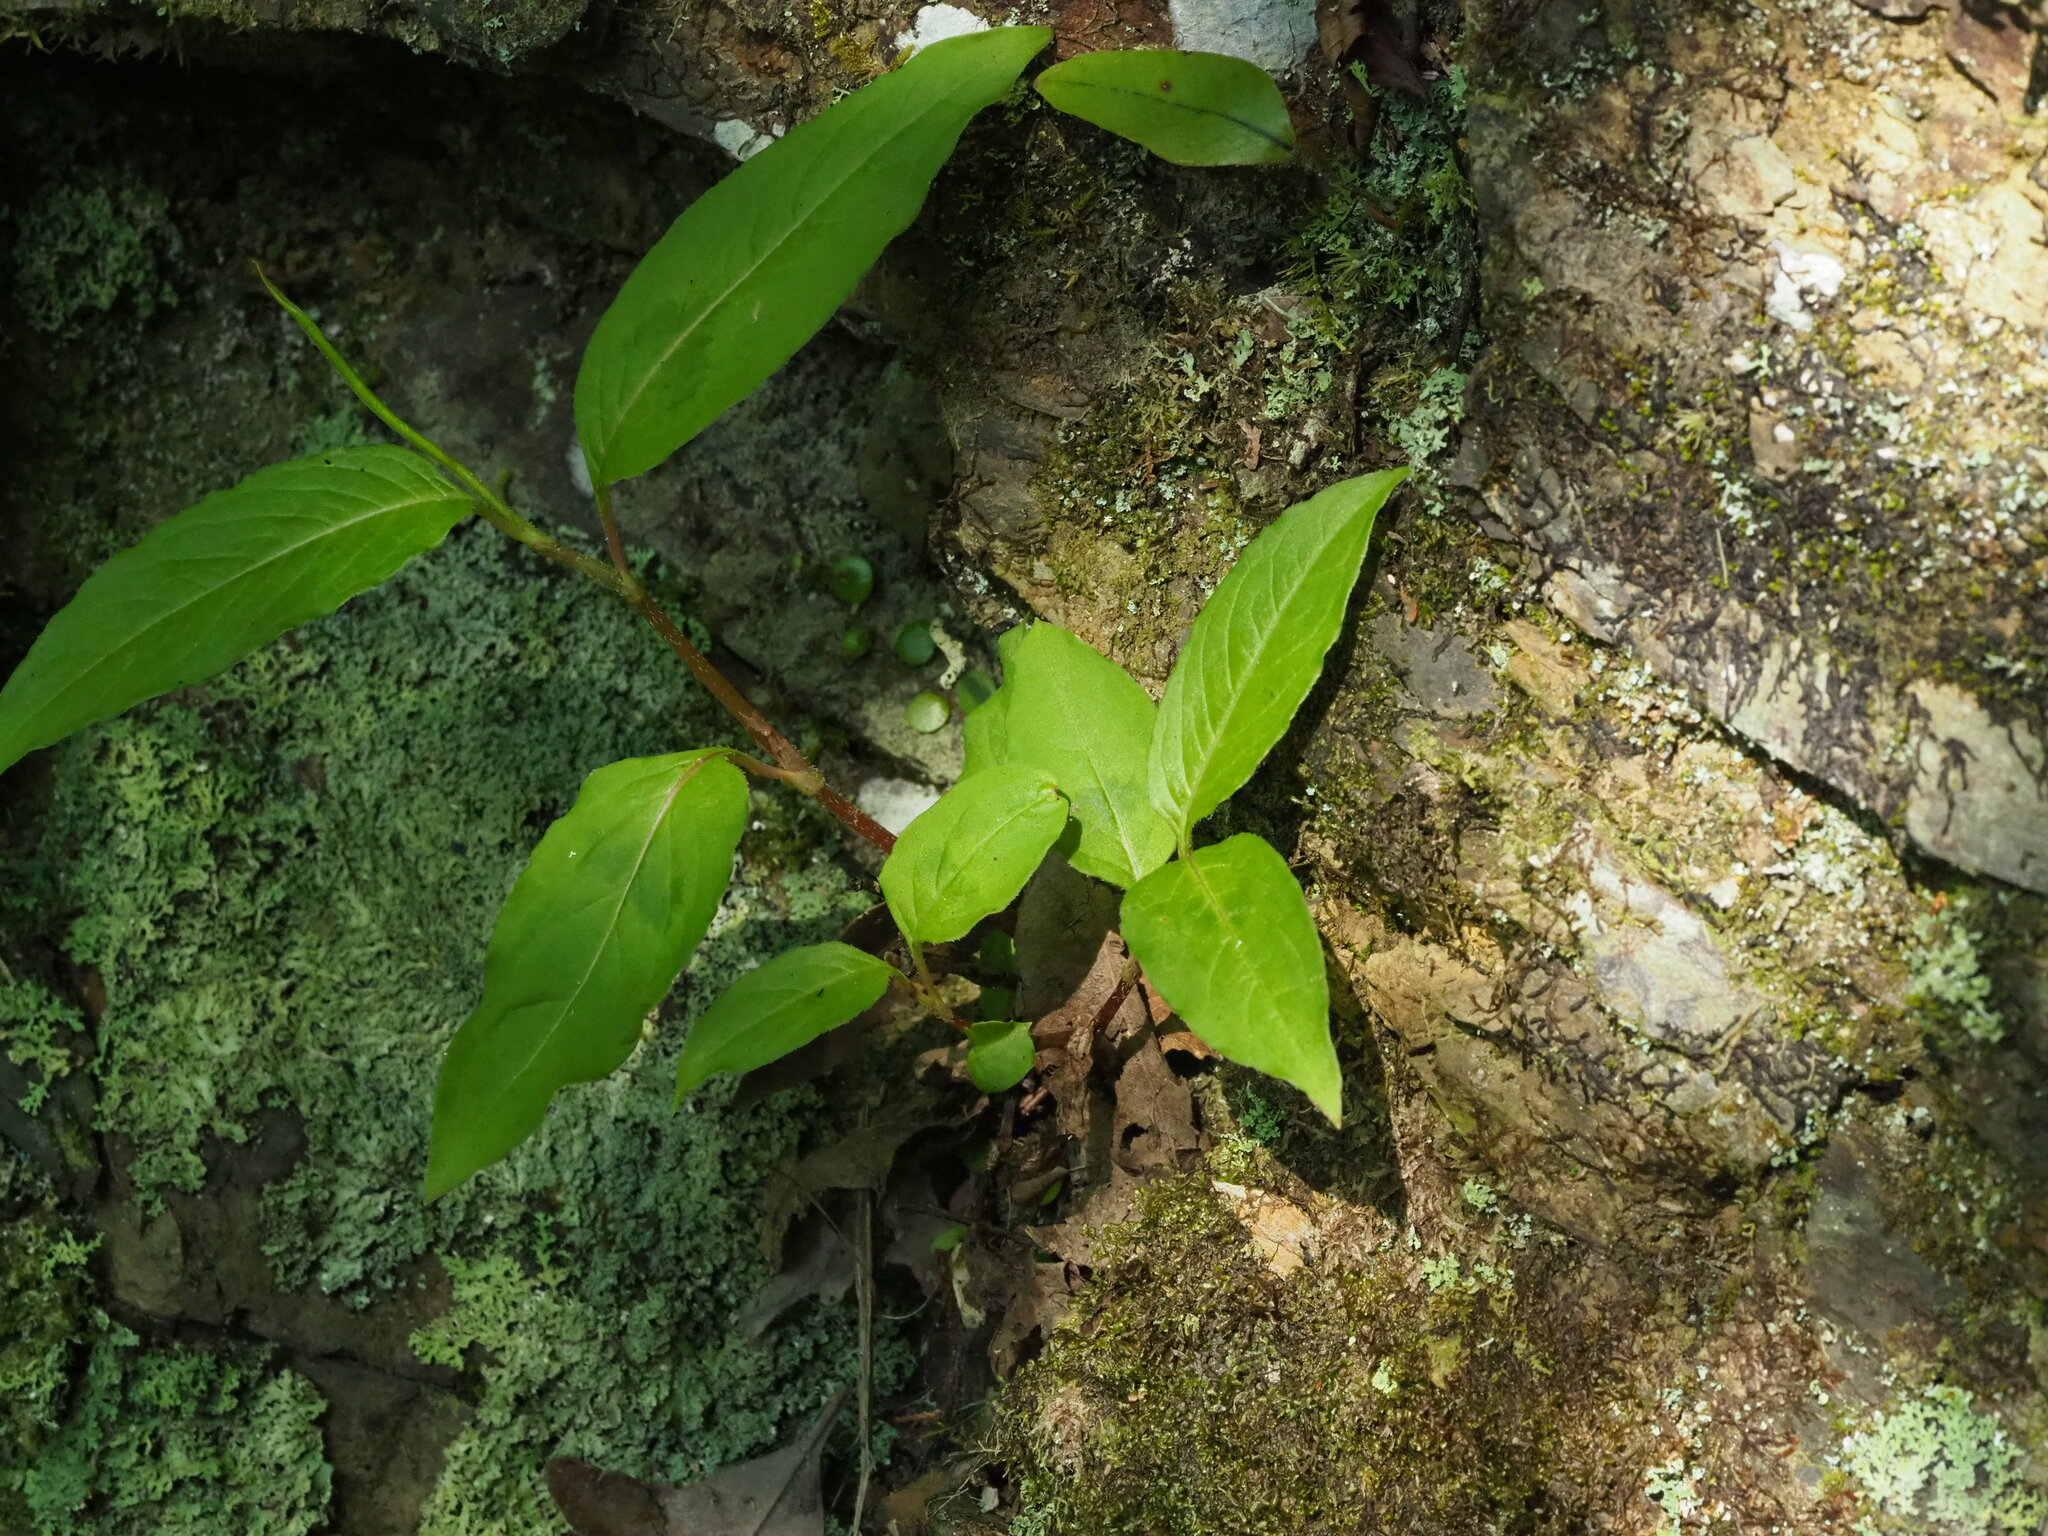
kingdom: Plantae
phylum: Tracheophyta
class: Magnoliopsida
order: Caryophyllales
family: Polygonaceae
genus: Persicaria
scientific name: Persicaria chinensis
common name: Chinese knotweed
